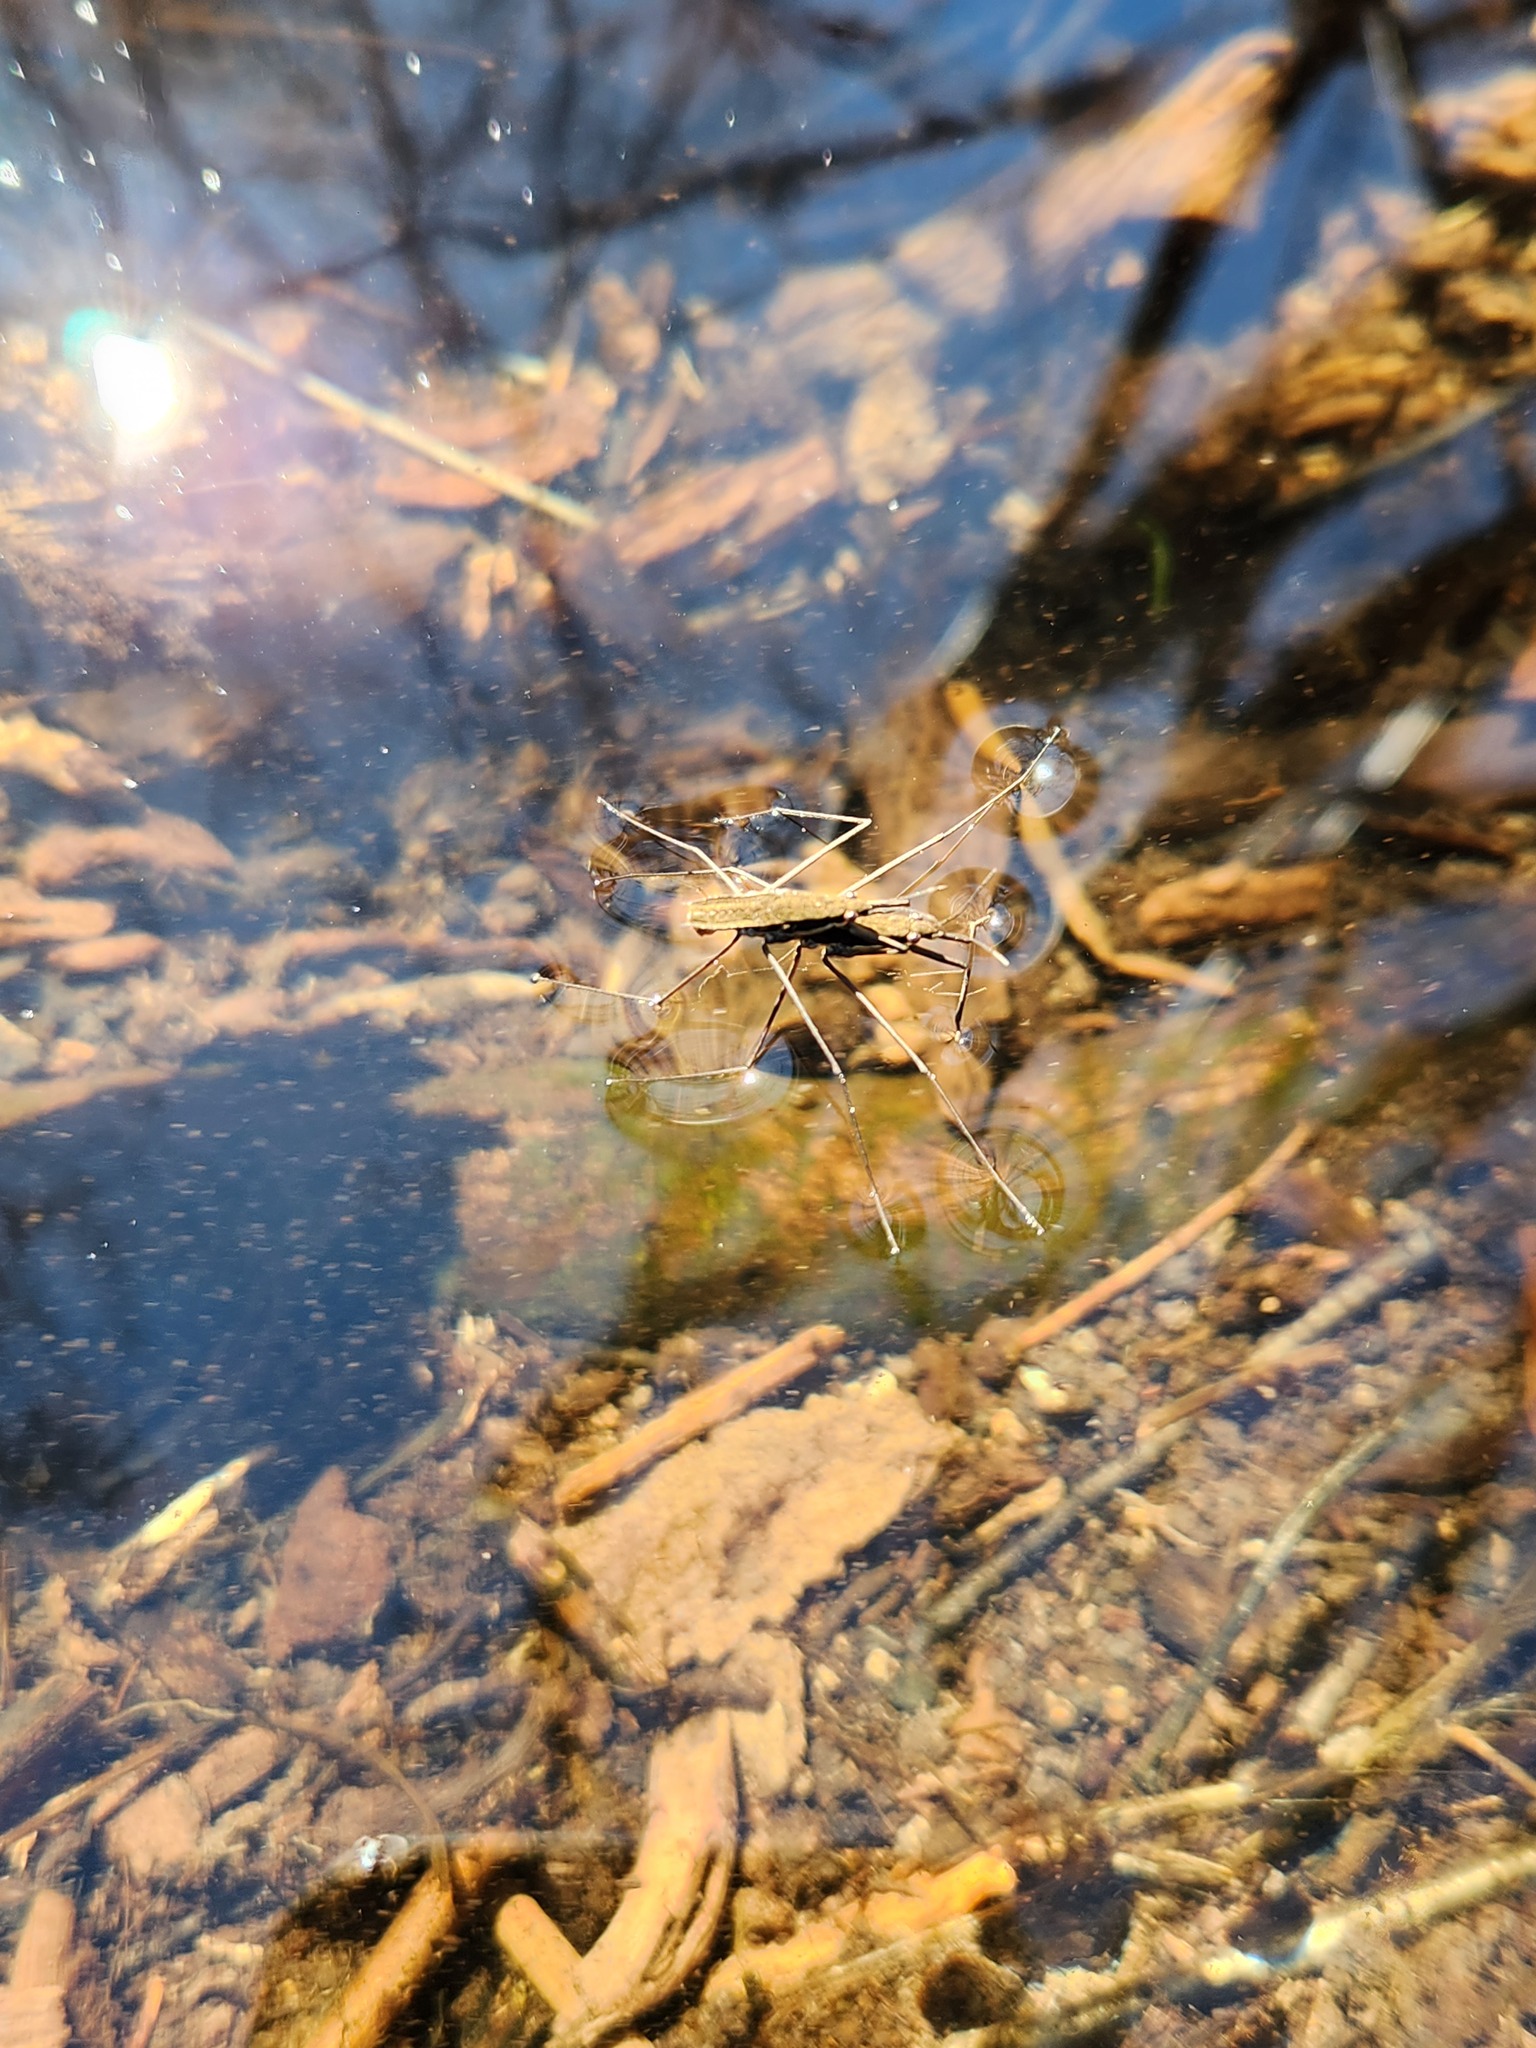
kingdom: Animalia
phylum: Arthropoda
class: Insecta
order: Hemiptera
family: Gerridae
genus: Aquarius
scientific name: Aquarius remigis
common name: Common water strider
